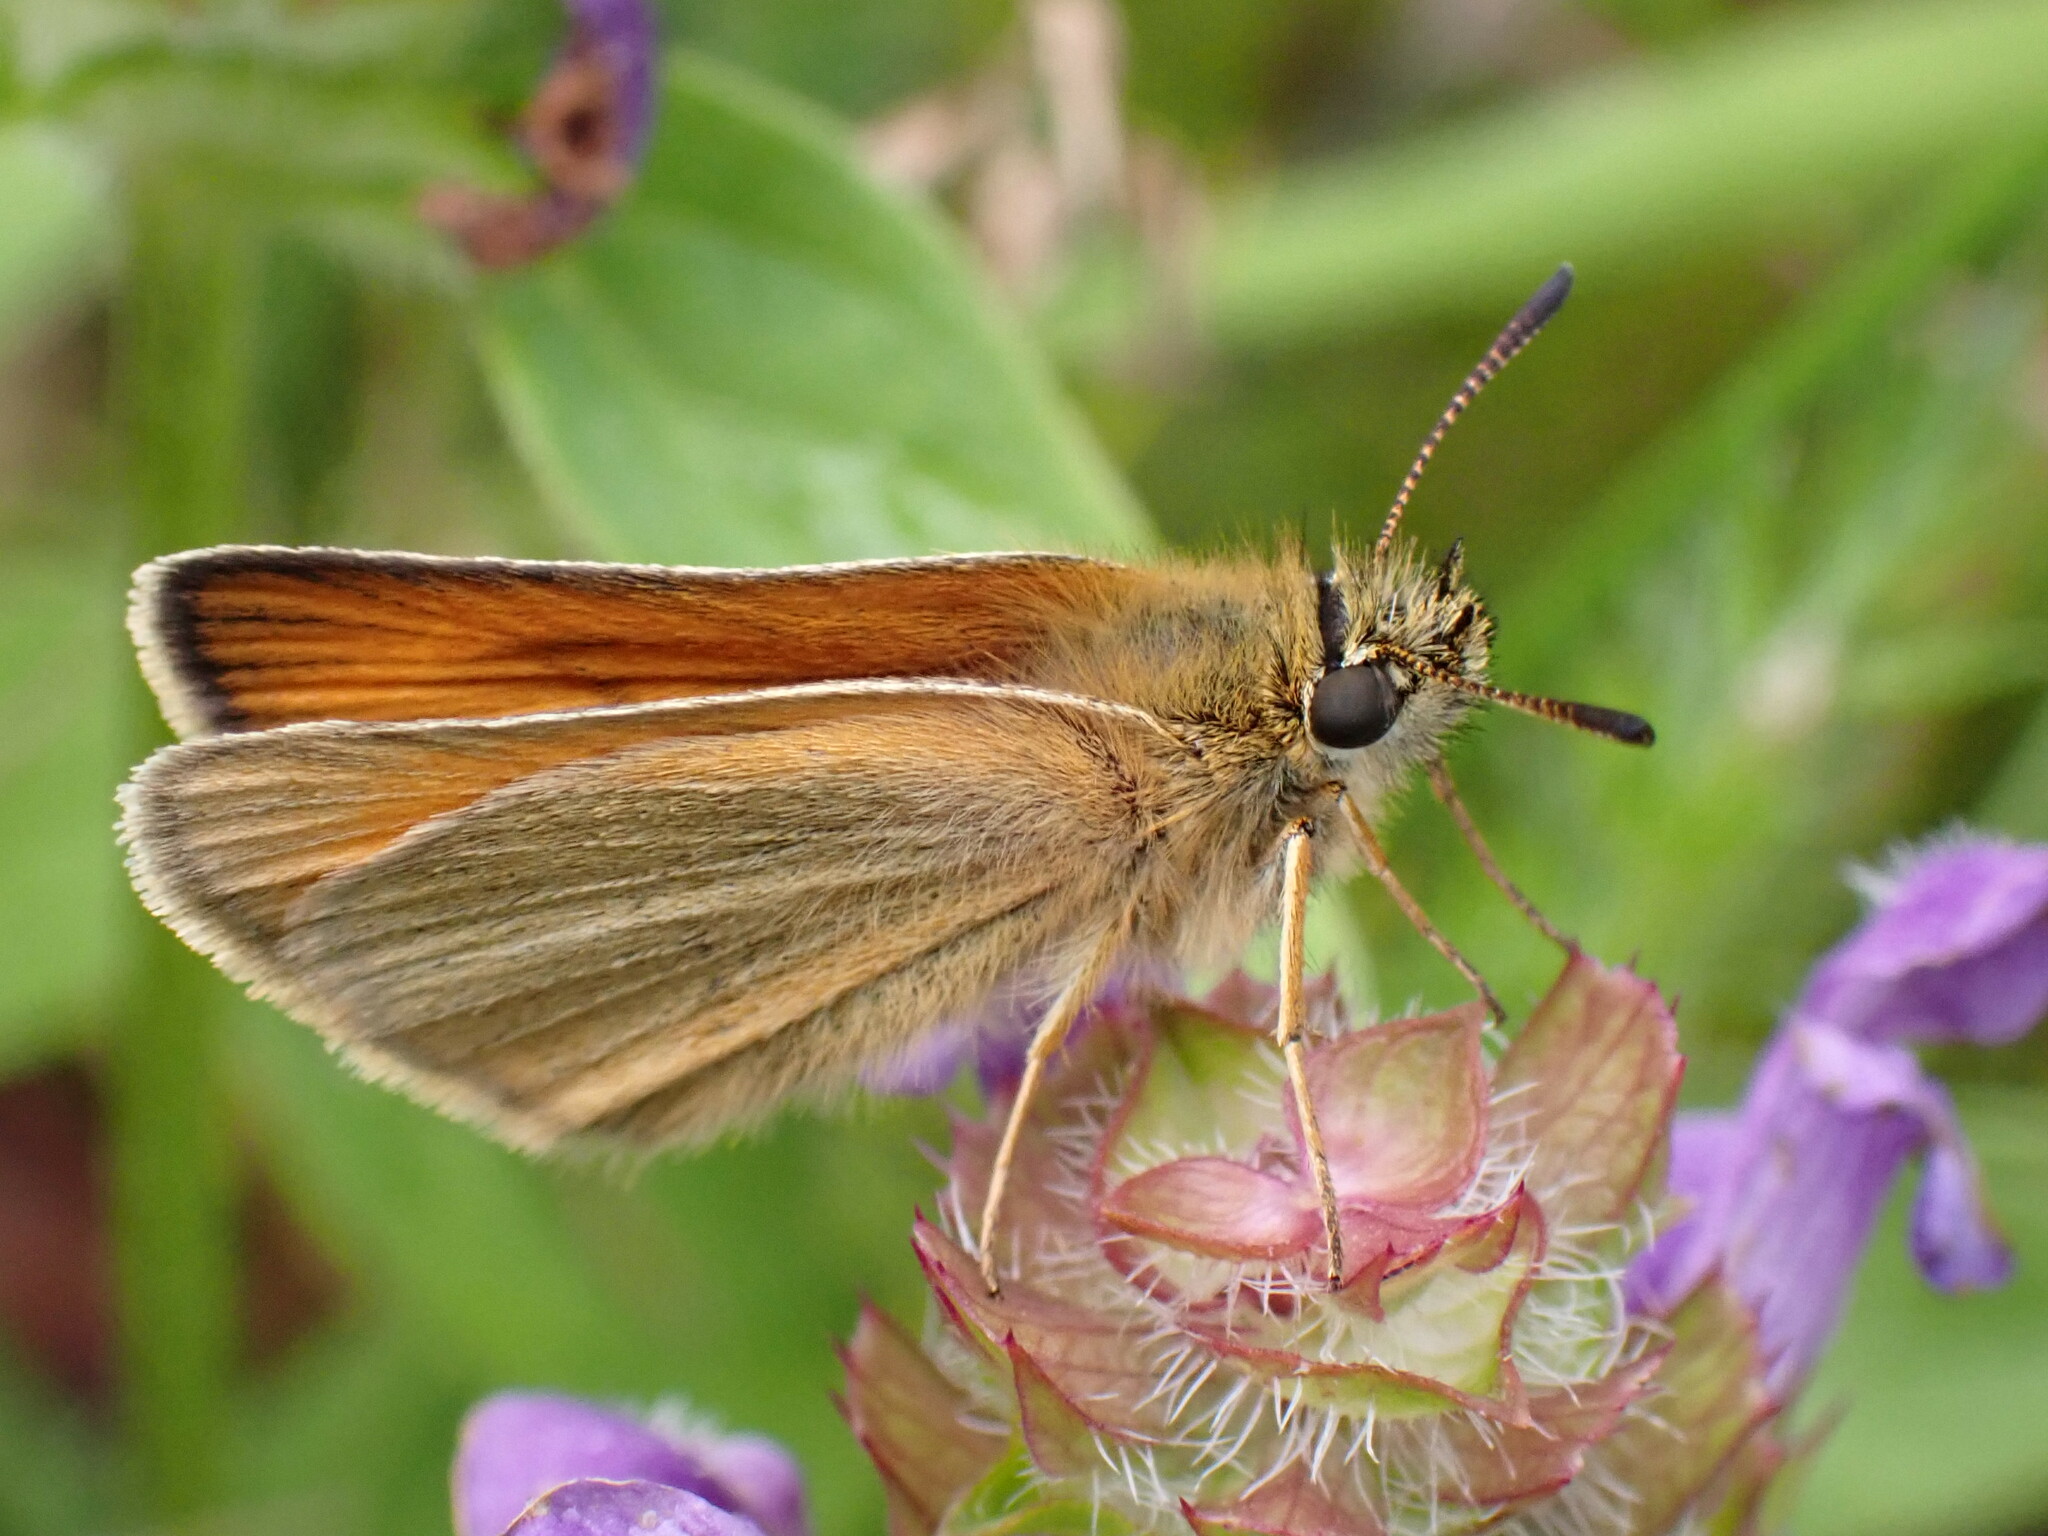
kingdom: Animalia
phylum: Arthropoda
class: Insecta
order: Lepidoptera
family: Hesperiidae
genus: Thymelicus
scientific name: Thymelicus lineola
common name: Essex skipper
